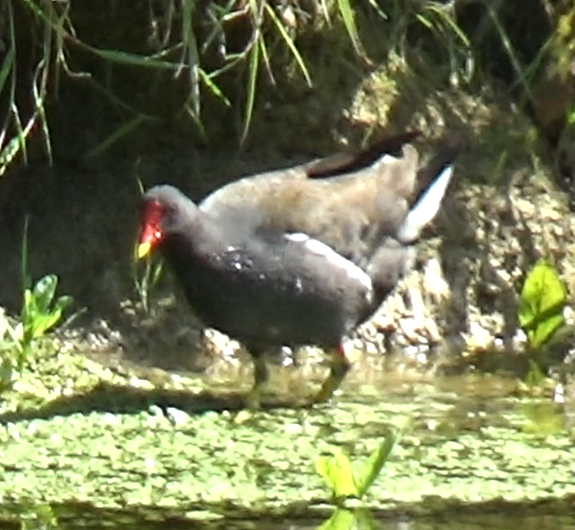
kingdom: Animalia
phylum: Chordata
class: Aves
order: Gruiformes
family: Rallidae
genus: Gallinula
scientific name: Gallinula chloropus
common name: Common moorhen
